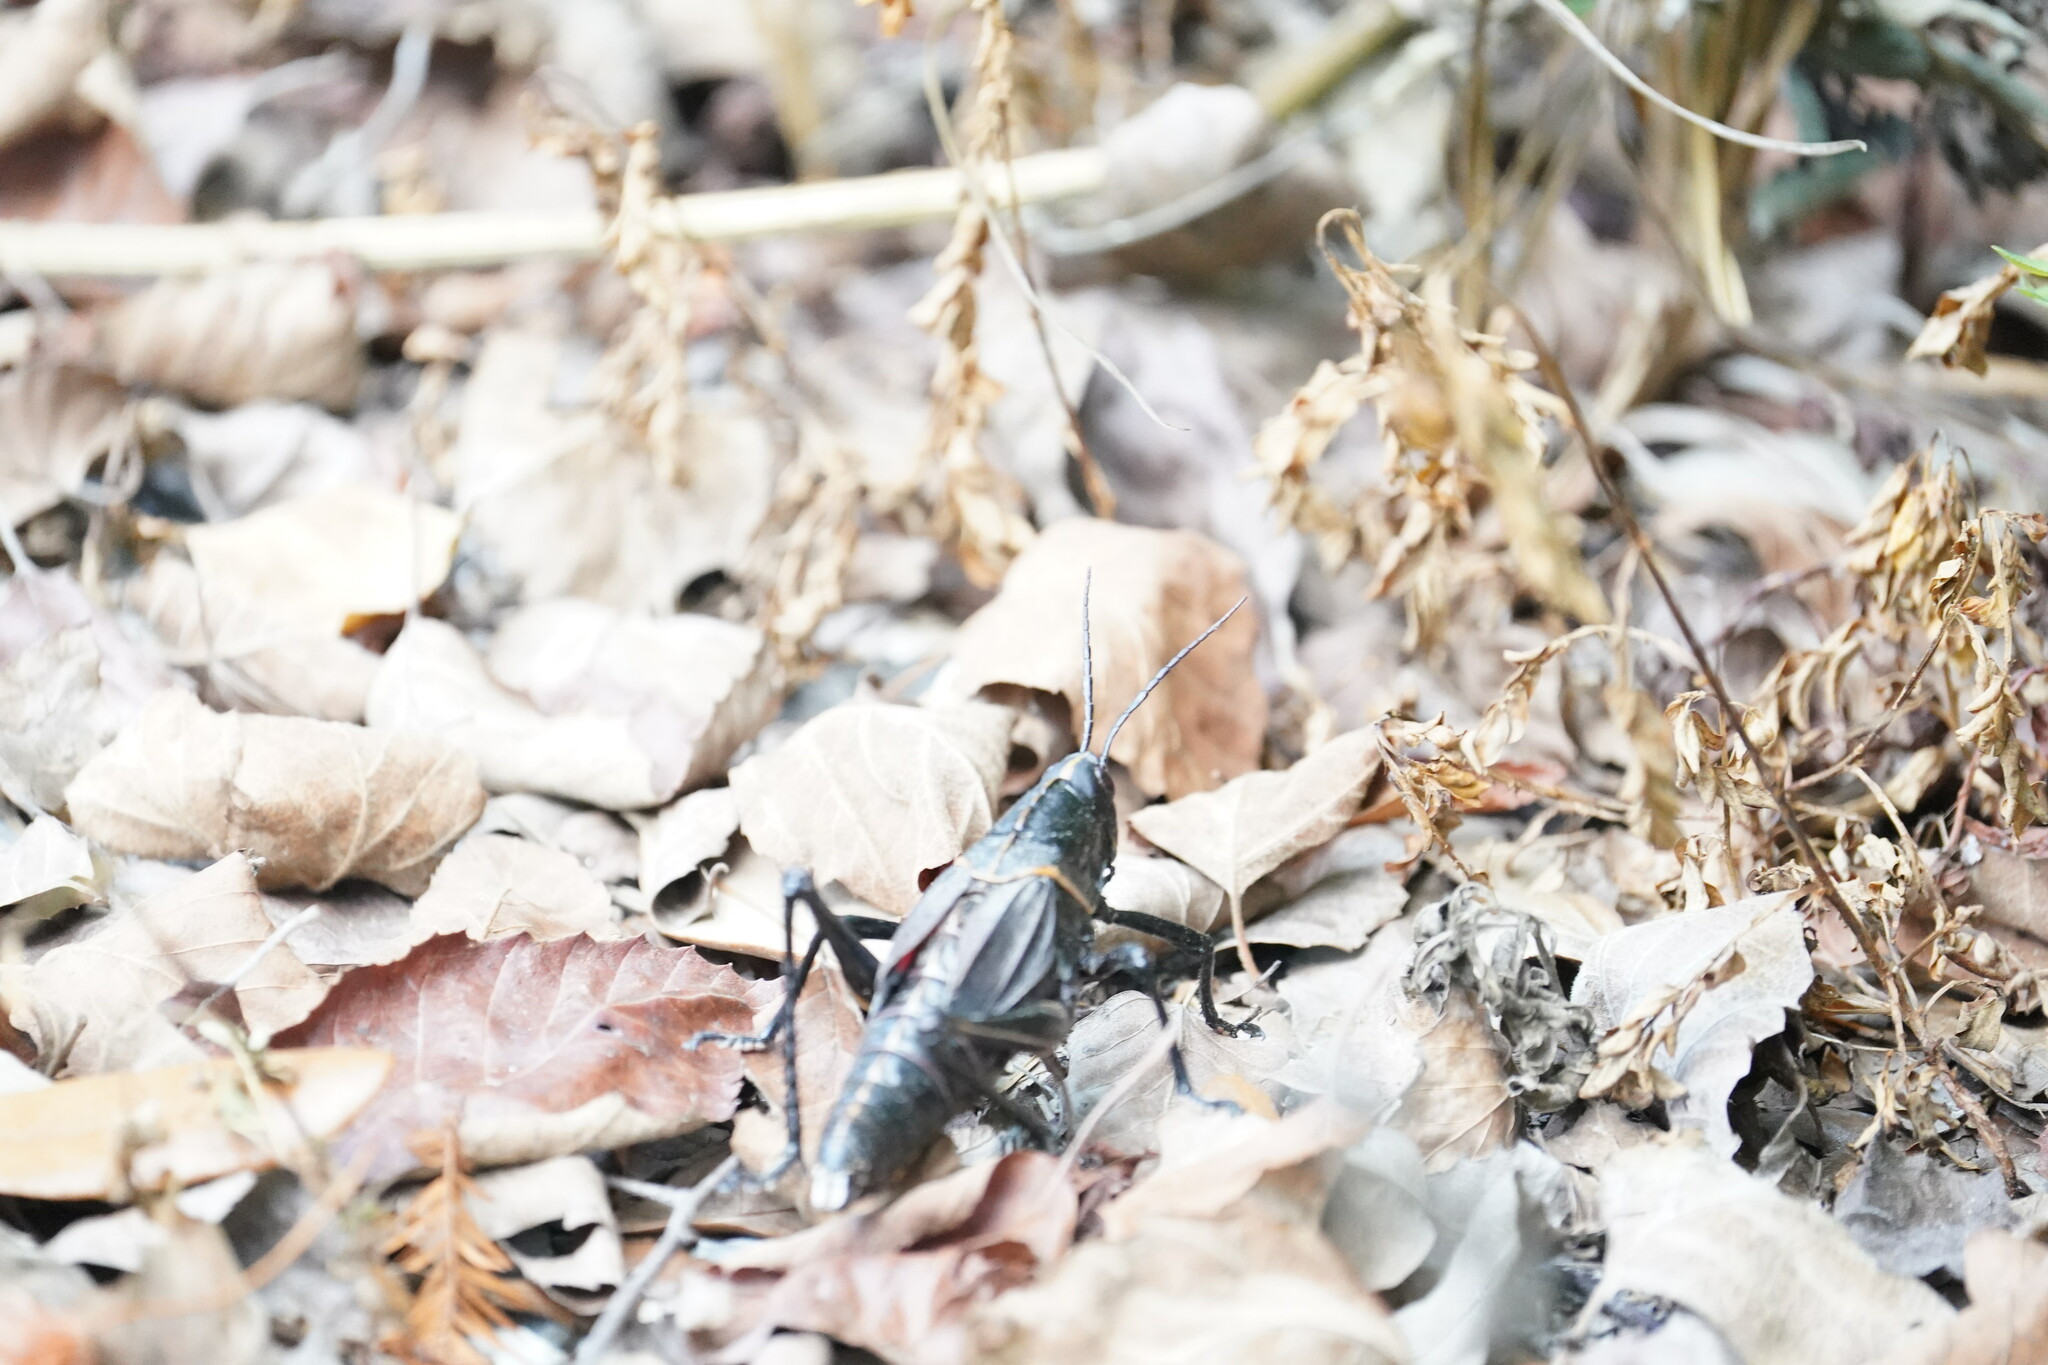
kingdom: Animalia
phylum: Arthropoda
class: Insecta
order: Orthoptera
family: Romaleidae
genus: Romalea
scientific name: Romalea microptera
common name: Eastern lubber grasshopper
